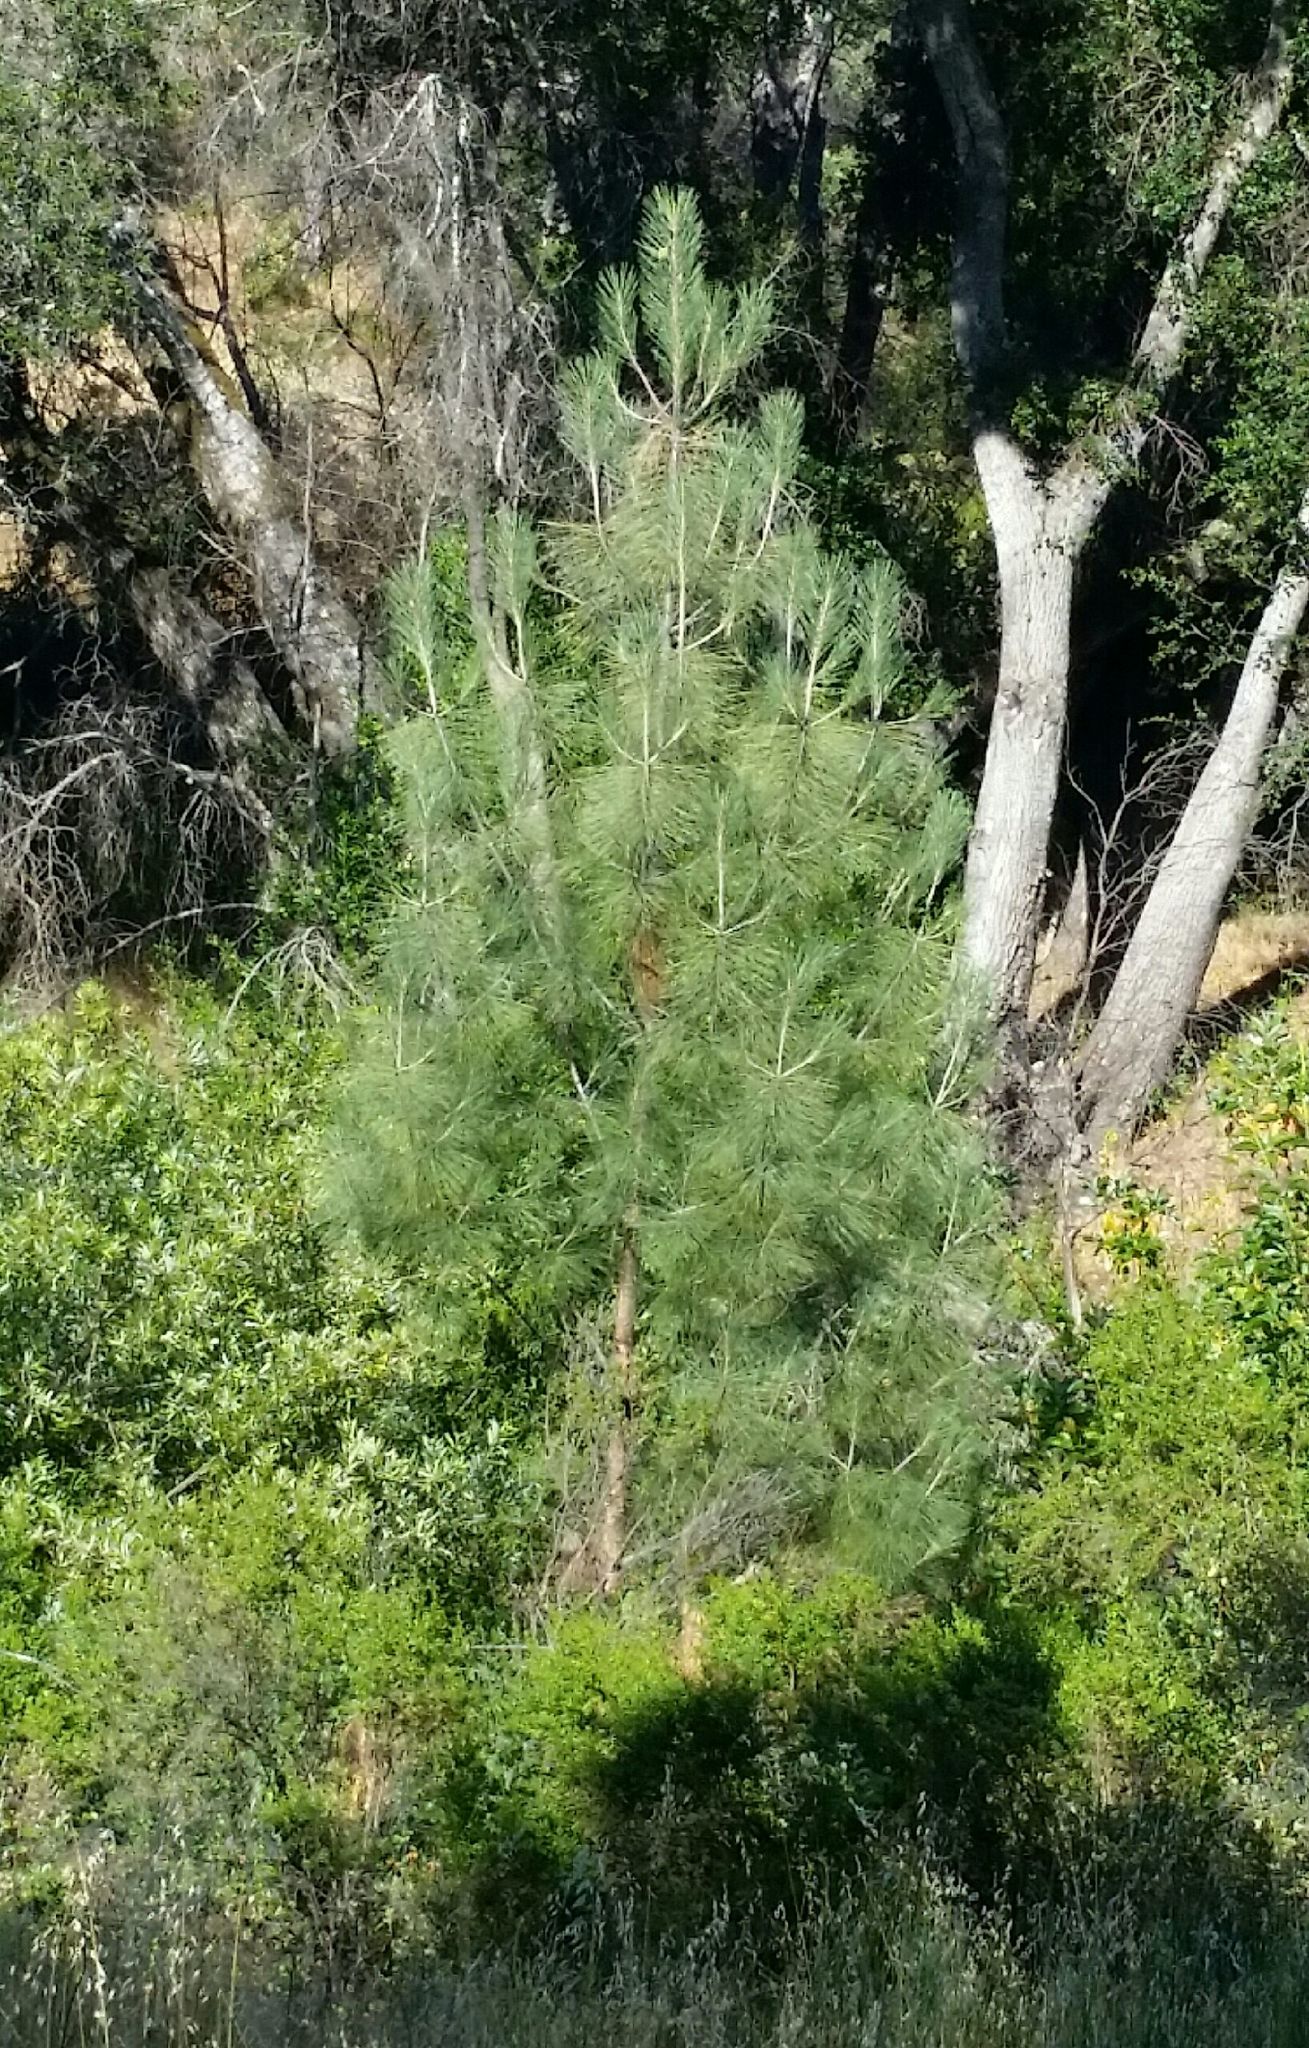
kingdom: Plantae
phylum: Tracheophyta
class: Pinopsida
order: Pinales
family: Pinaceae
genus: Pinus
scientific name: Pinus sabiniana
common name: Bull pine
